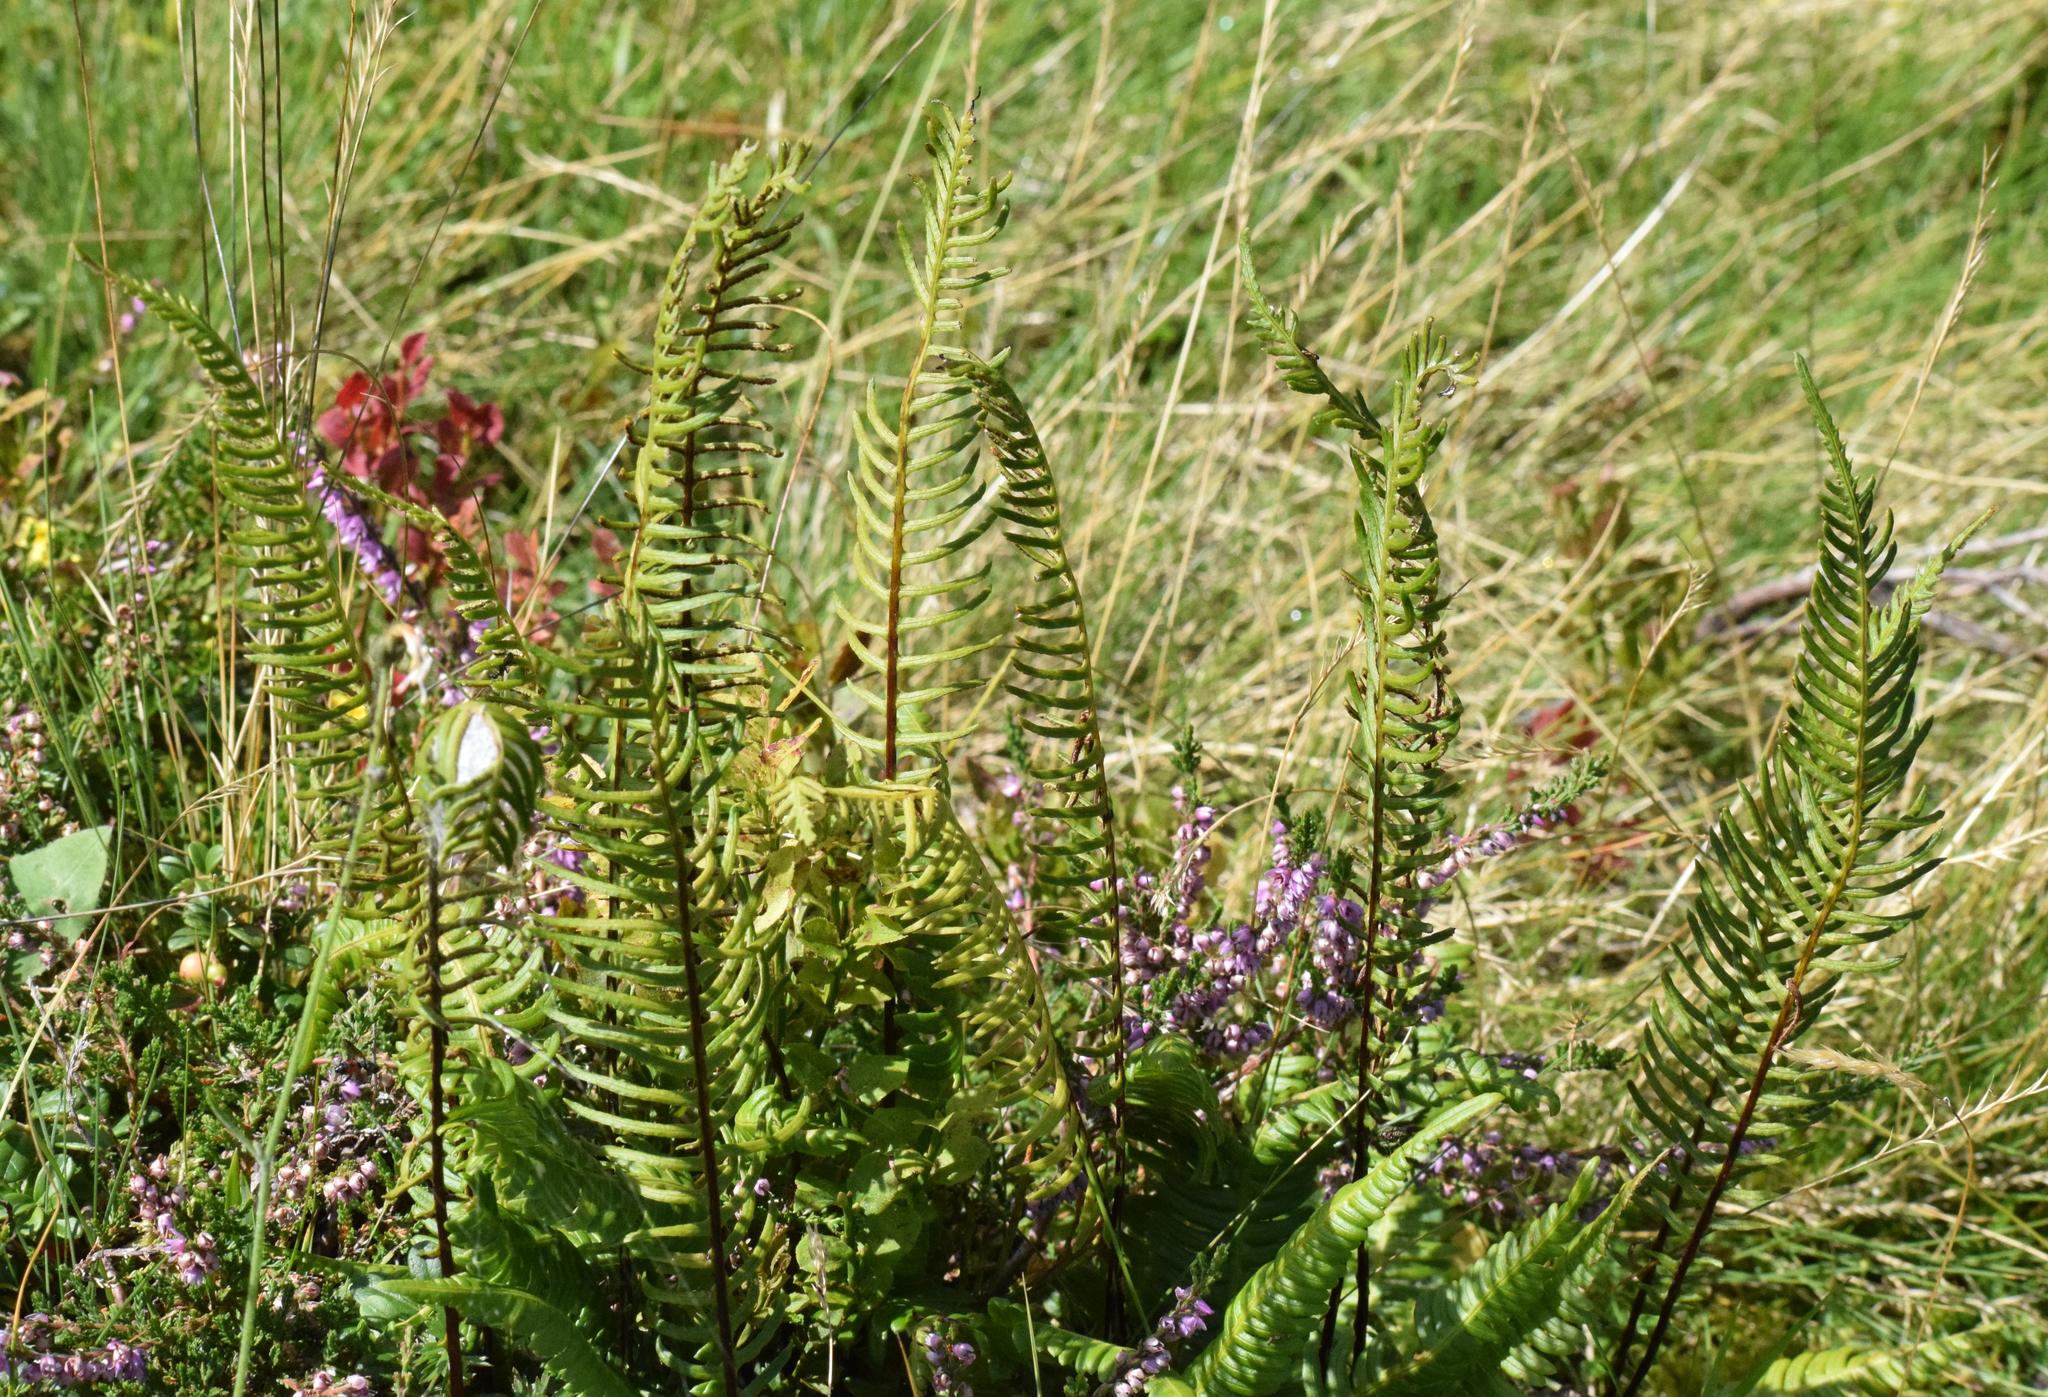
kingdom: Plantae
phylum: Tracheophyta
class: Polypodiopsida
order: Polypodiales
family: Blechnaceae
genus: Struthiopteris
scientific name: Struthiopteris spicant
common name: Deer fern
